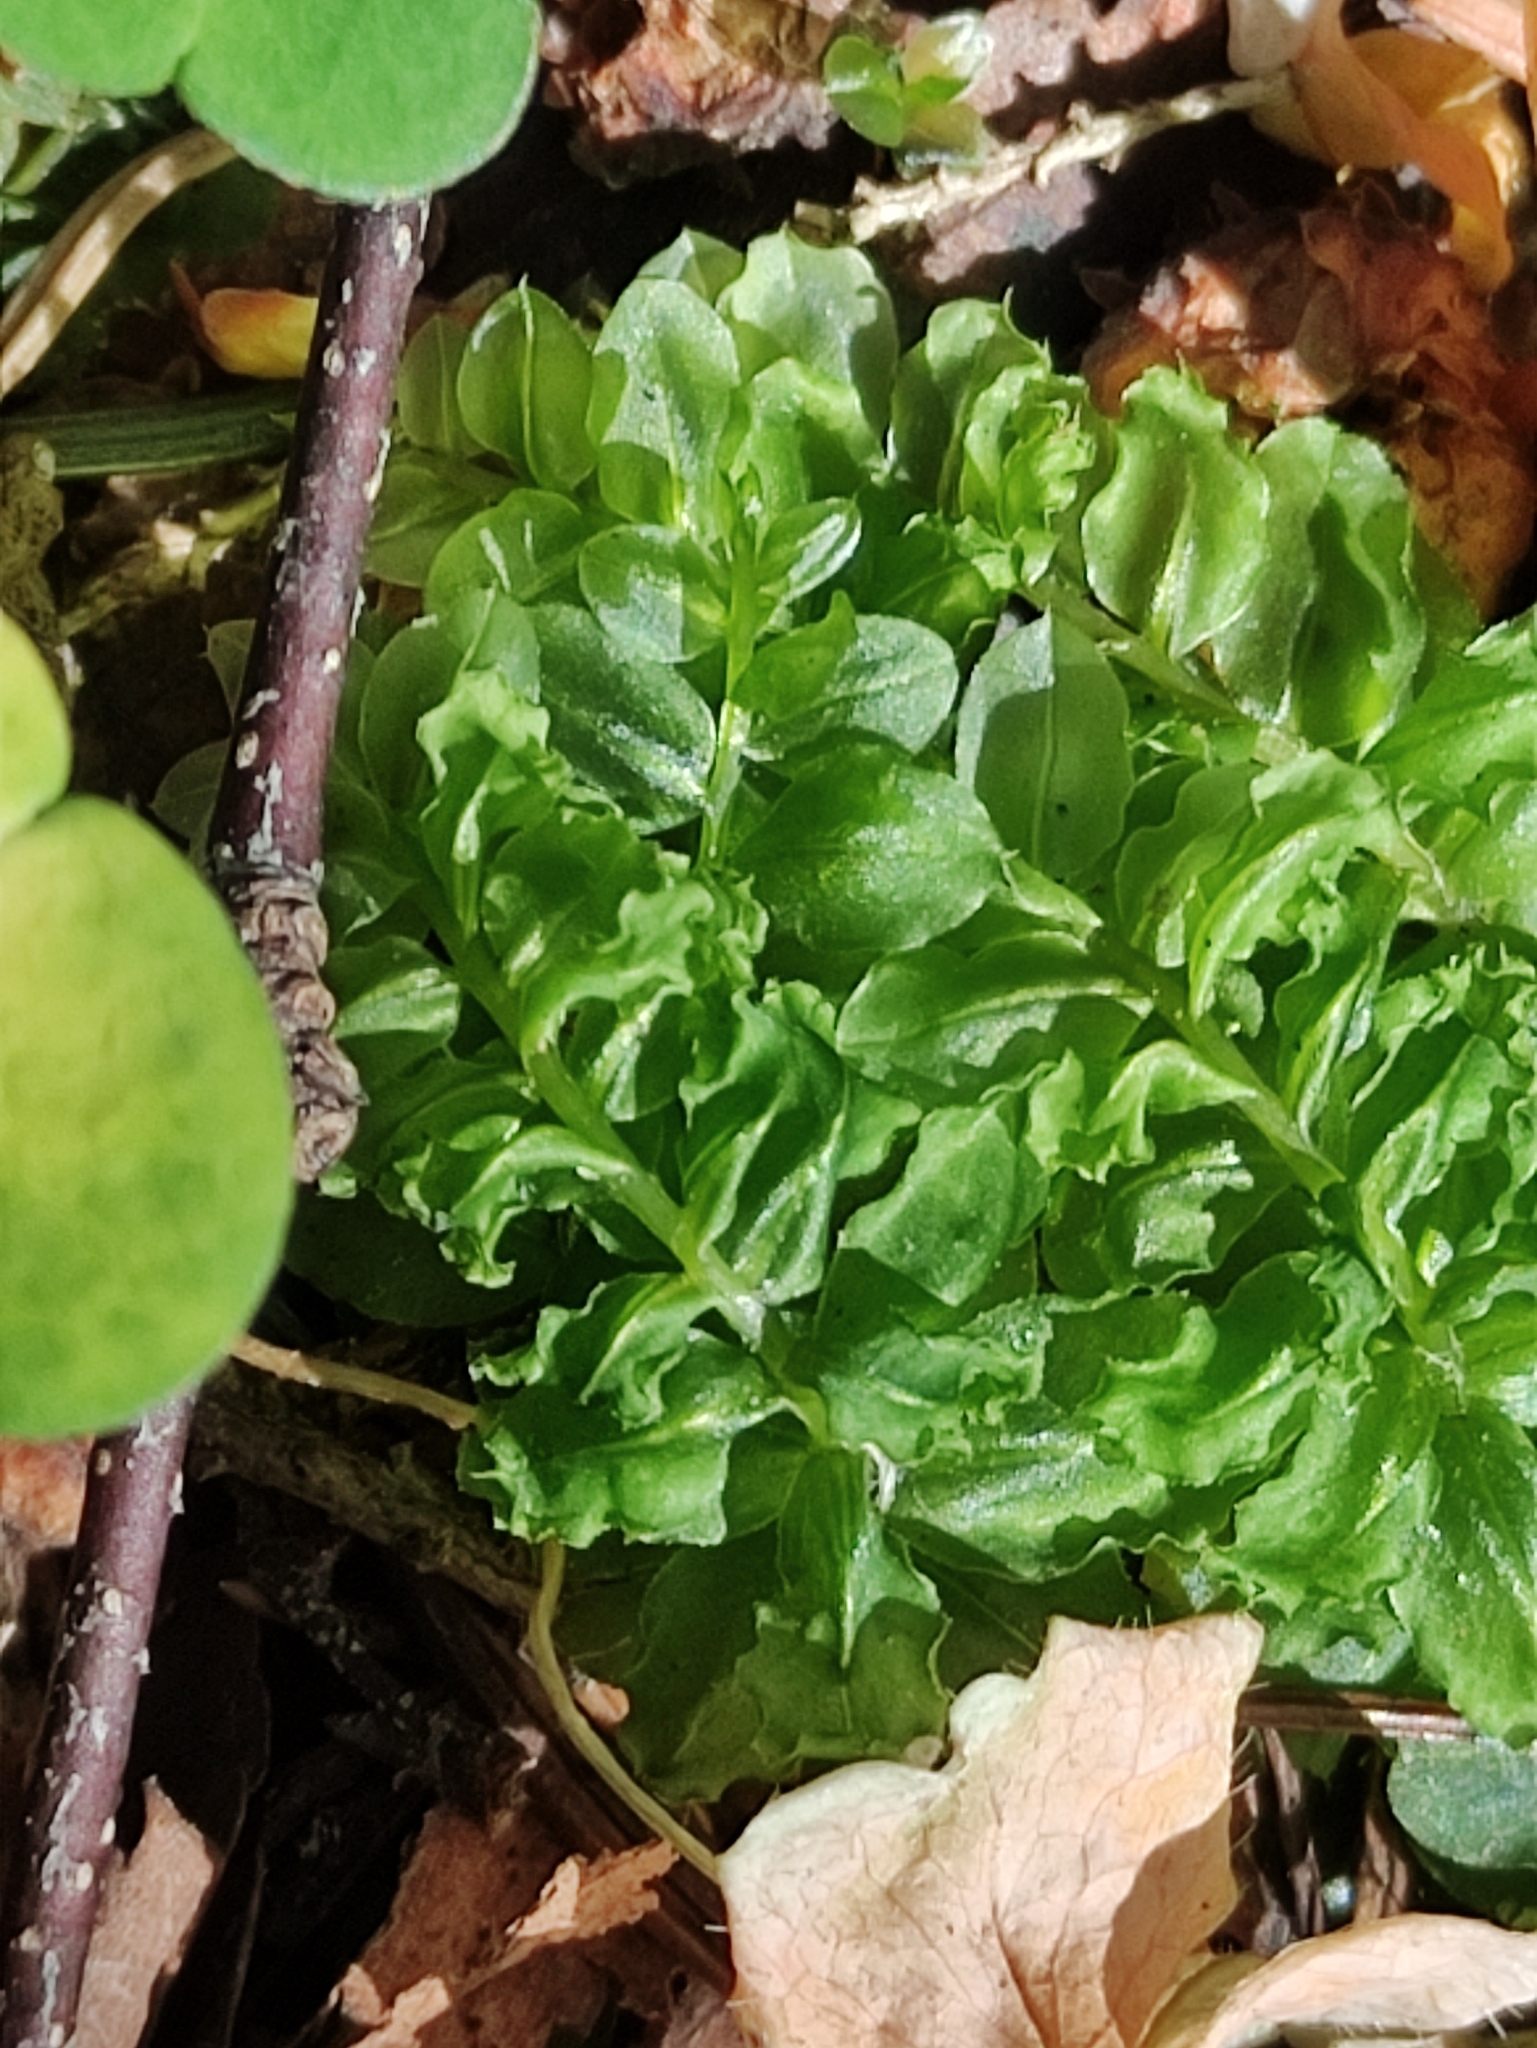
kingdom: Plantae
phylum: Bryophyta
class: Bryopsida
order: Bryales
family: Mniaceae
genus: Plagiomnium
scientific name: Plagiomnium affine
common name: Many-fruited thyme-moss
